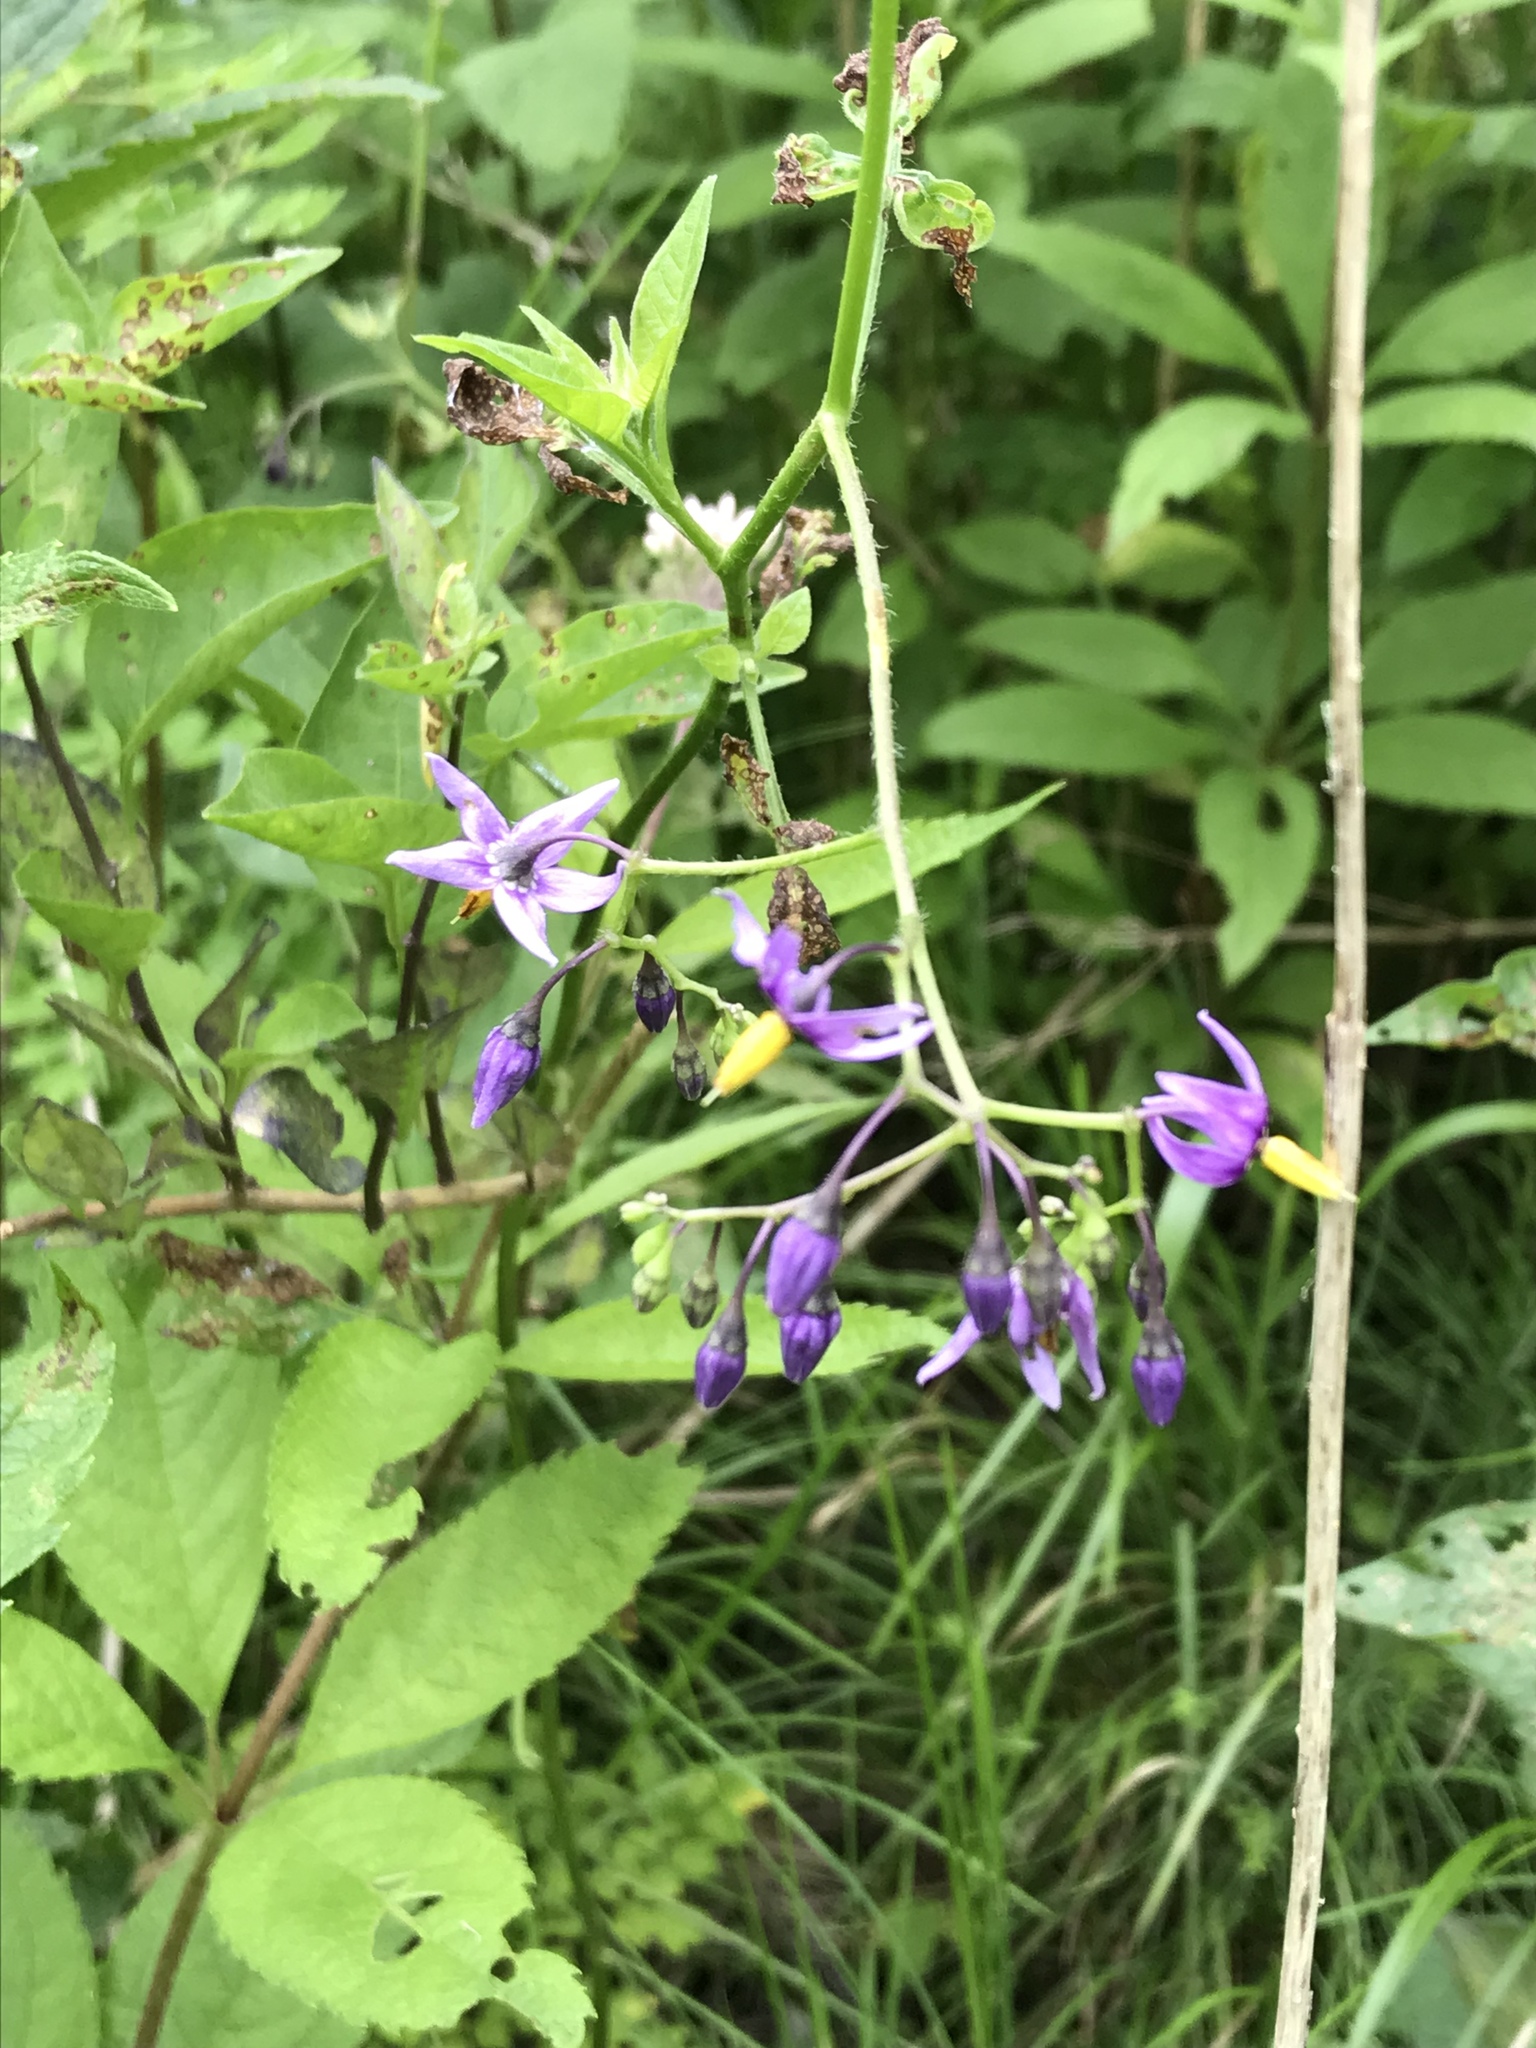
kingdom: Plantae
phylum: Tracheophyta
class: Magnoliopsida
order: Solanales
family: Solanaceae
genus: Solanum
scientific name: Solanum dulcamara
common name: Climbing nightshade
